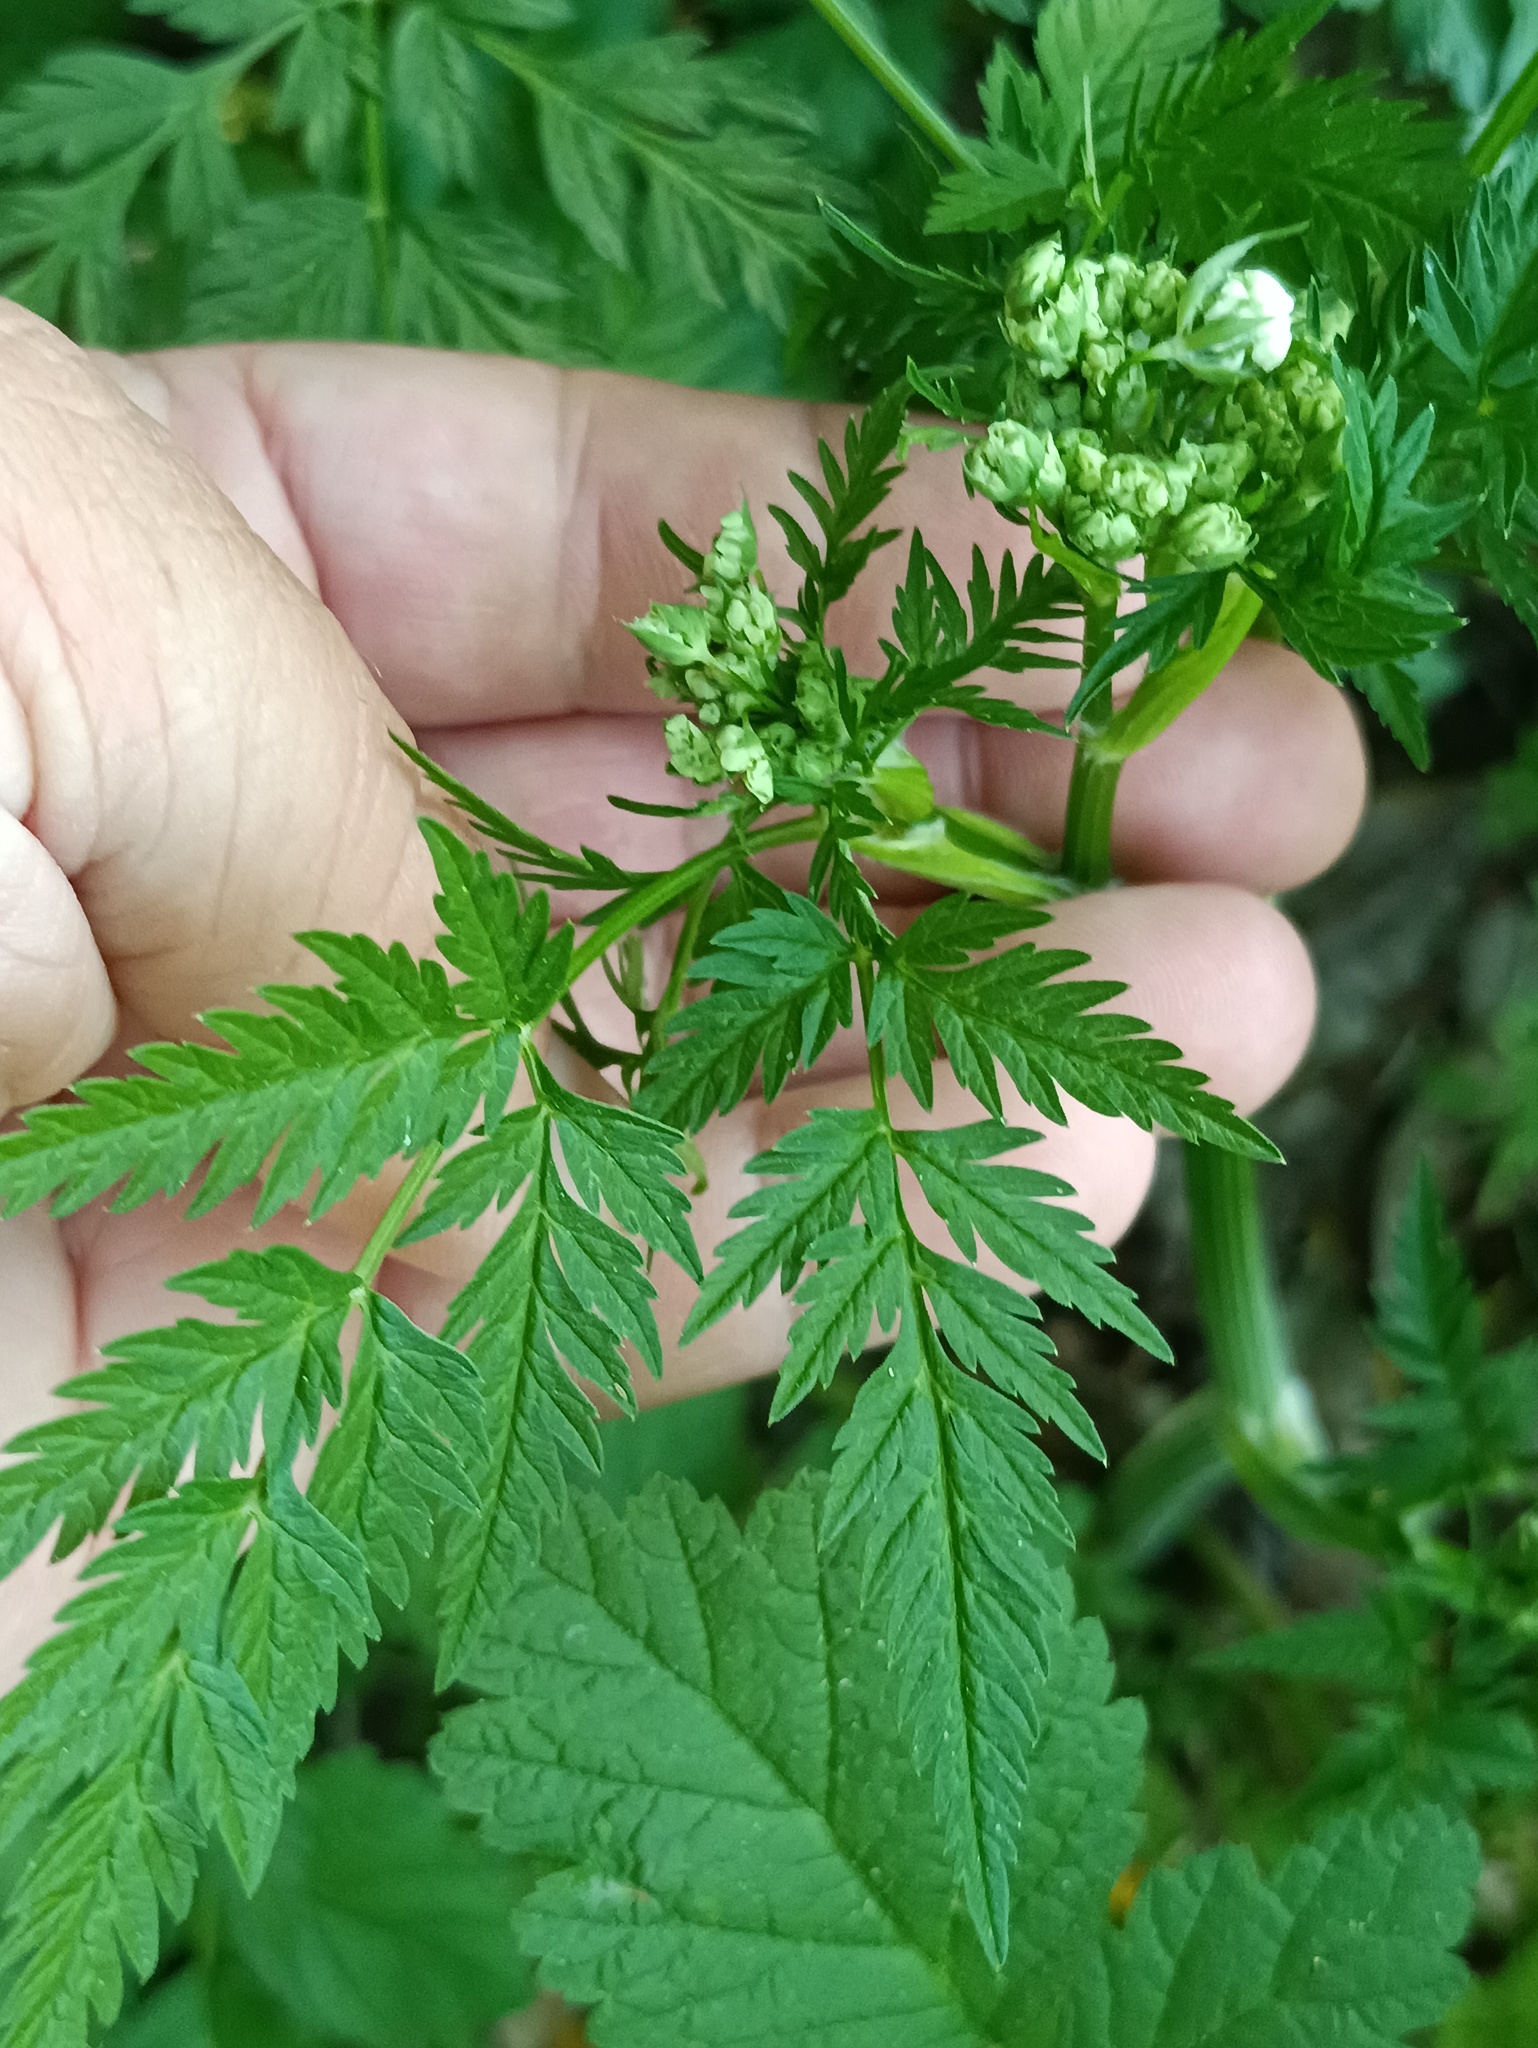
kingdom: Plantae
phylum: Tracheophyta
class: Magnoliopsida
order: Apiales
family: Apiaceae
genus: Anthriscus
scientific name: Anthriscus sylvestris
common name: Cow parsley
